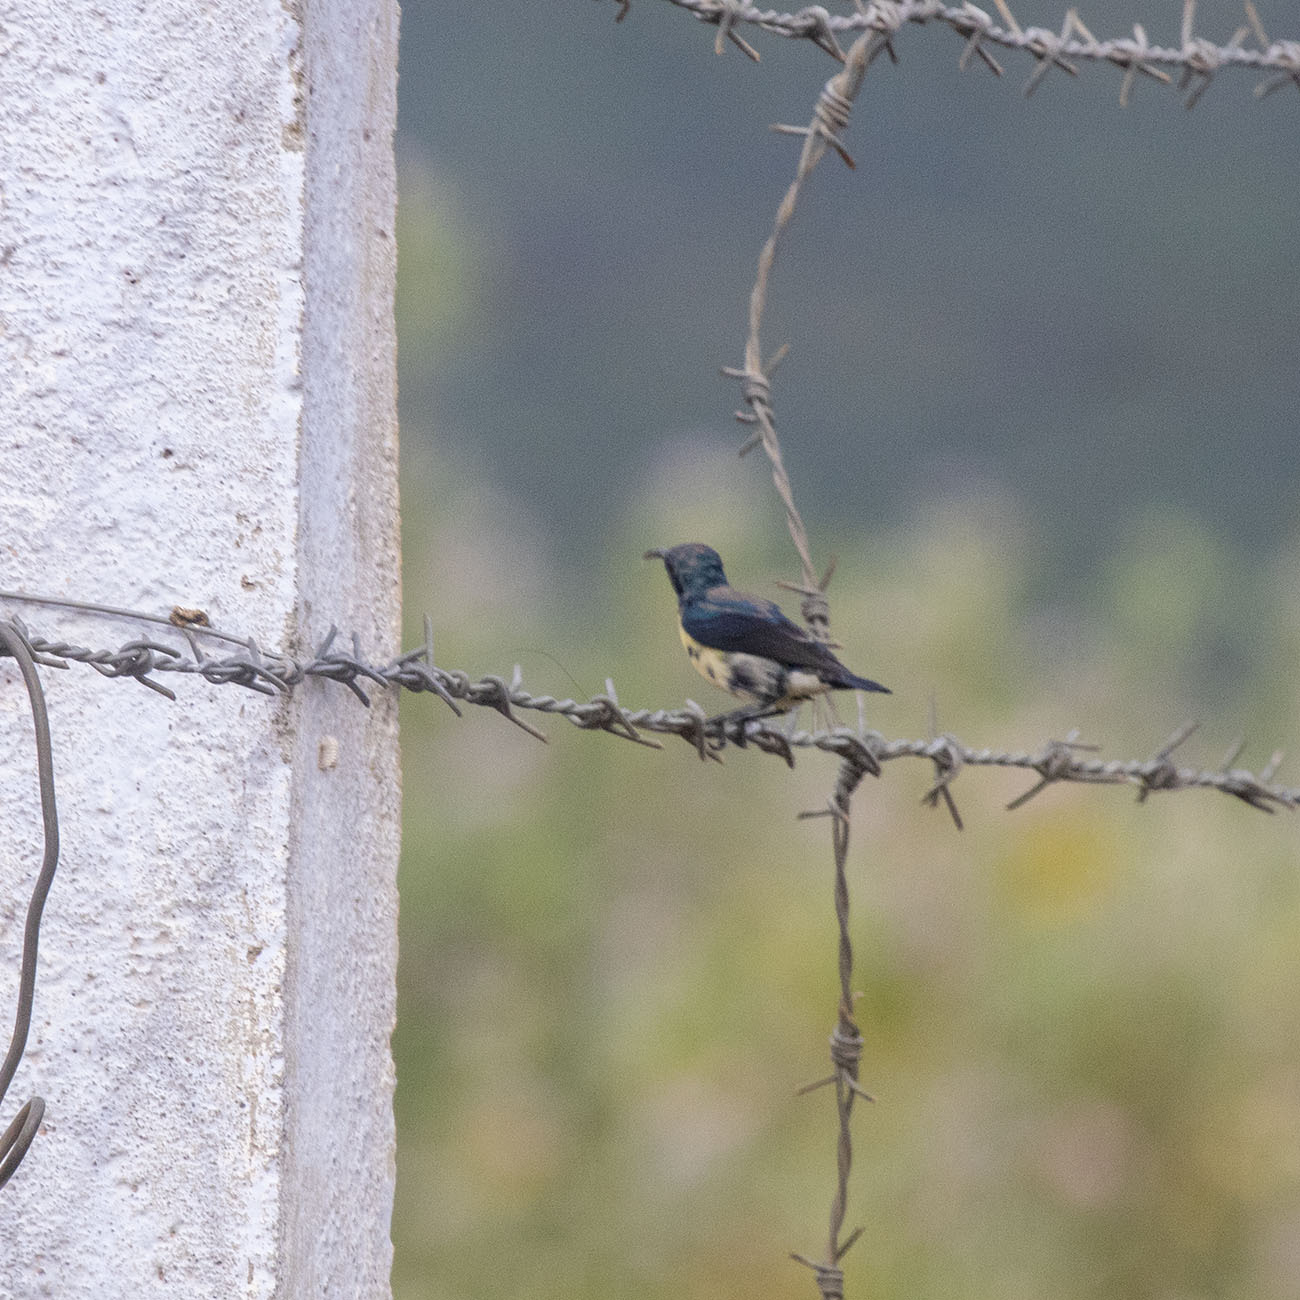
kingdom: Animalia
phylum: Chordata
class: Aves
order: Passeriformes
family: Nectariniidae
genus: Cinnyris
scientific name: Cinnyris asiaticus
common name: Purple sunbird
